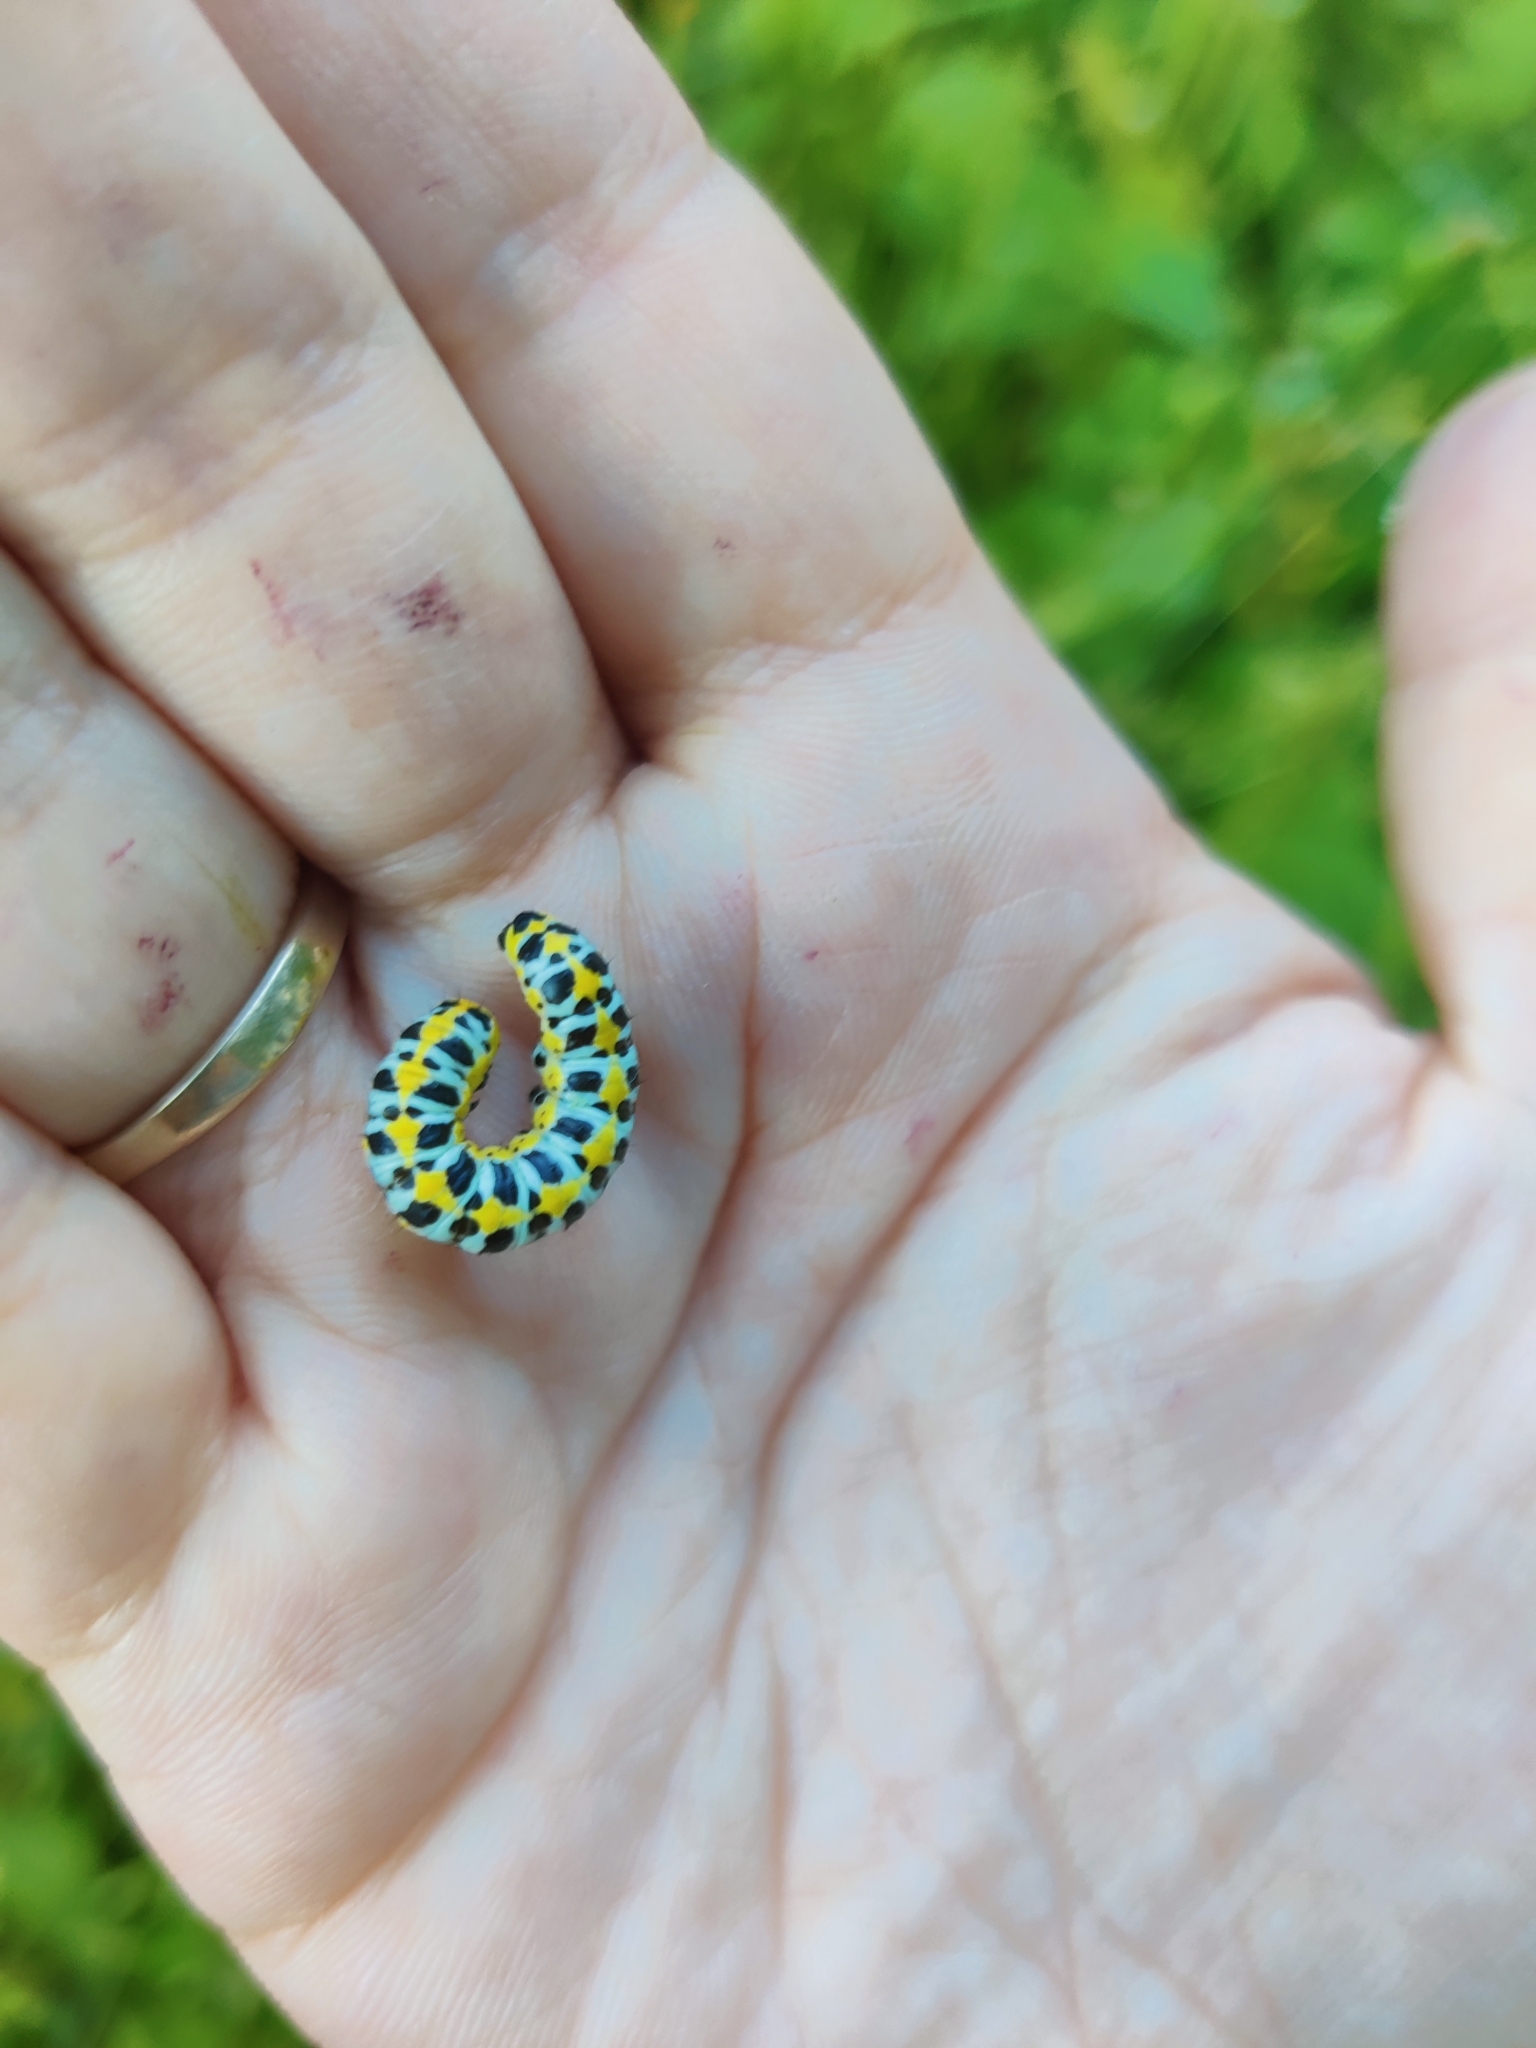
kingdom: Animalia
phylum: Arthropoda
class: Insecta
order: Lepidoptera
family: Noctuidae
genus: Cucullia
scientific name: Cucullia pustulata
